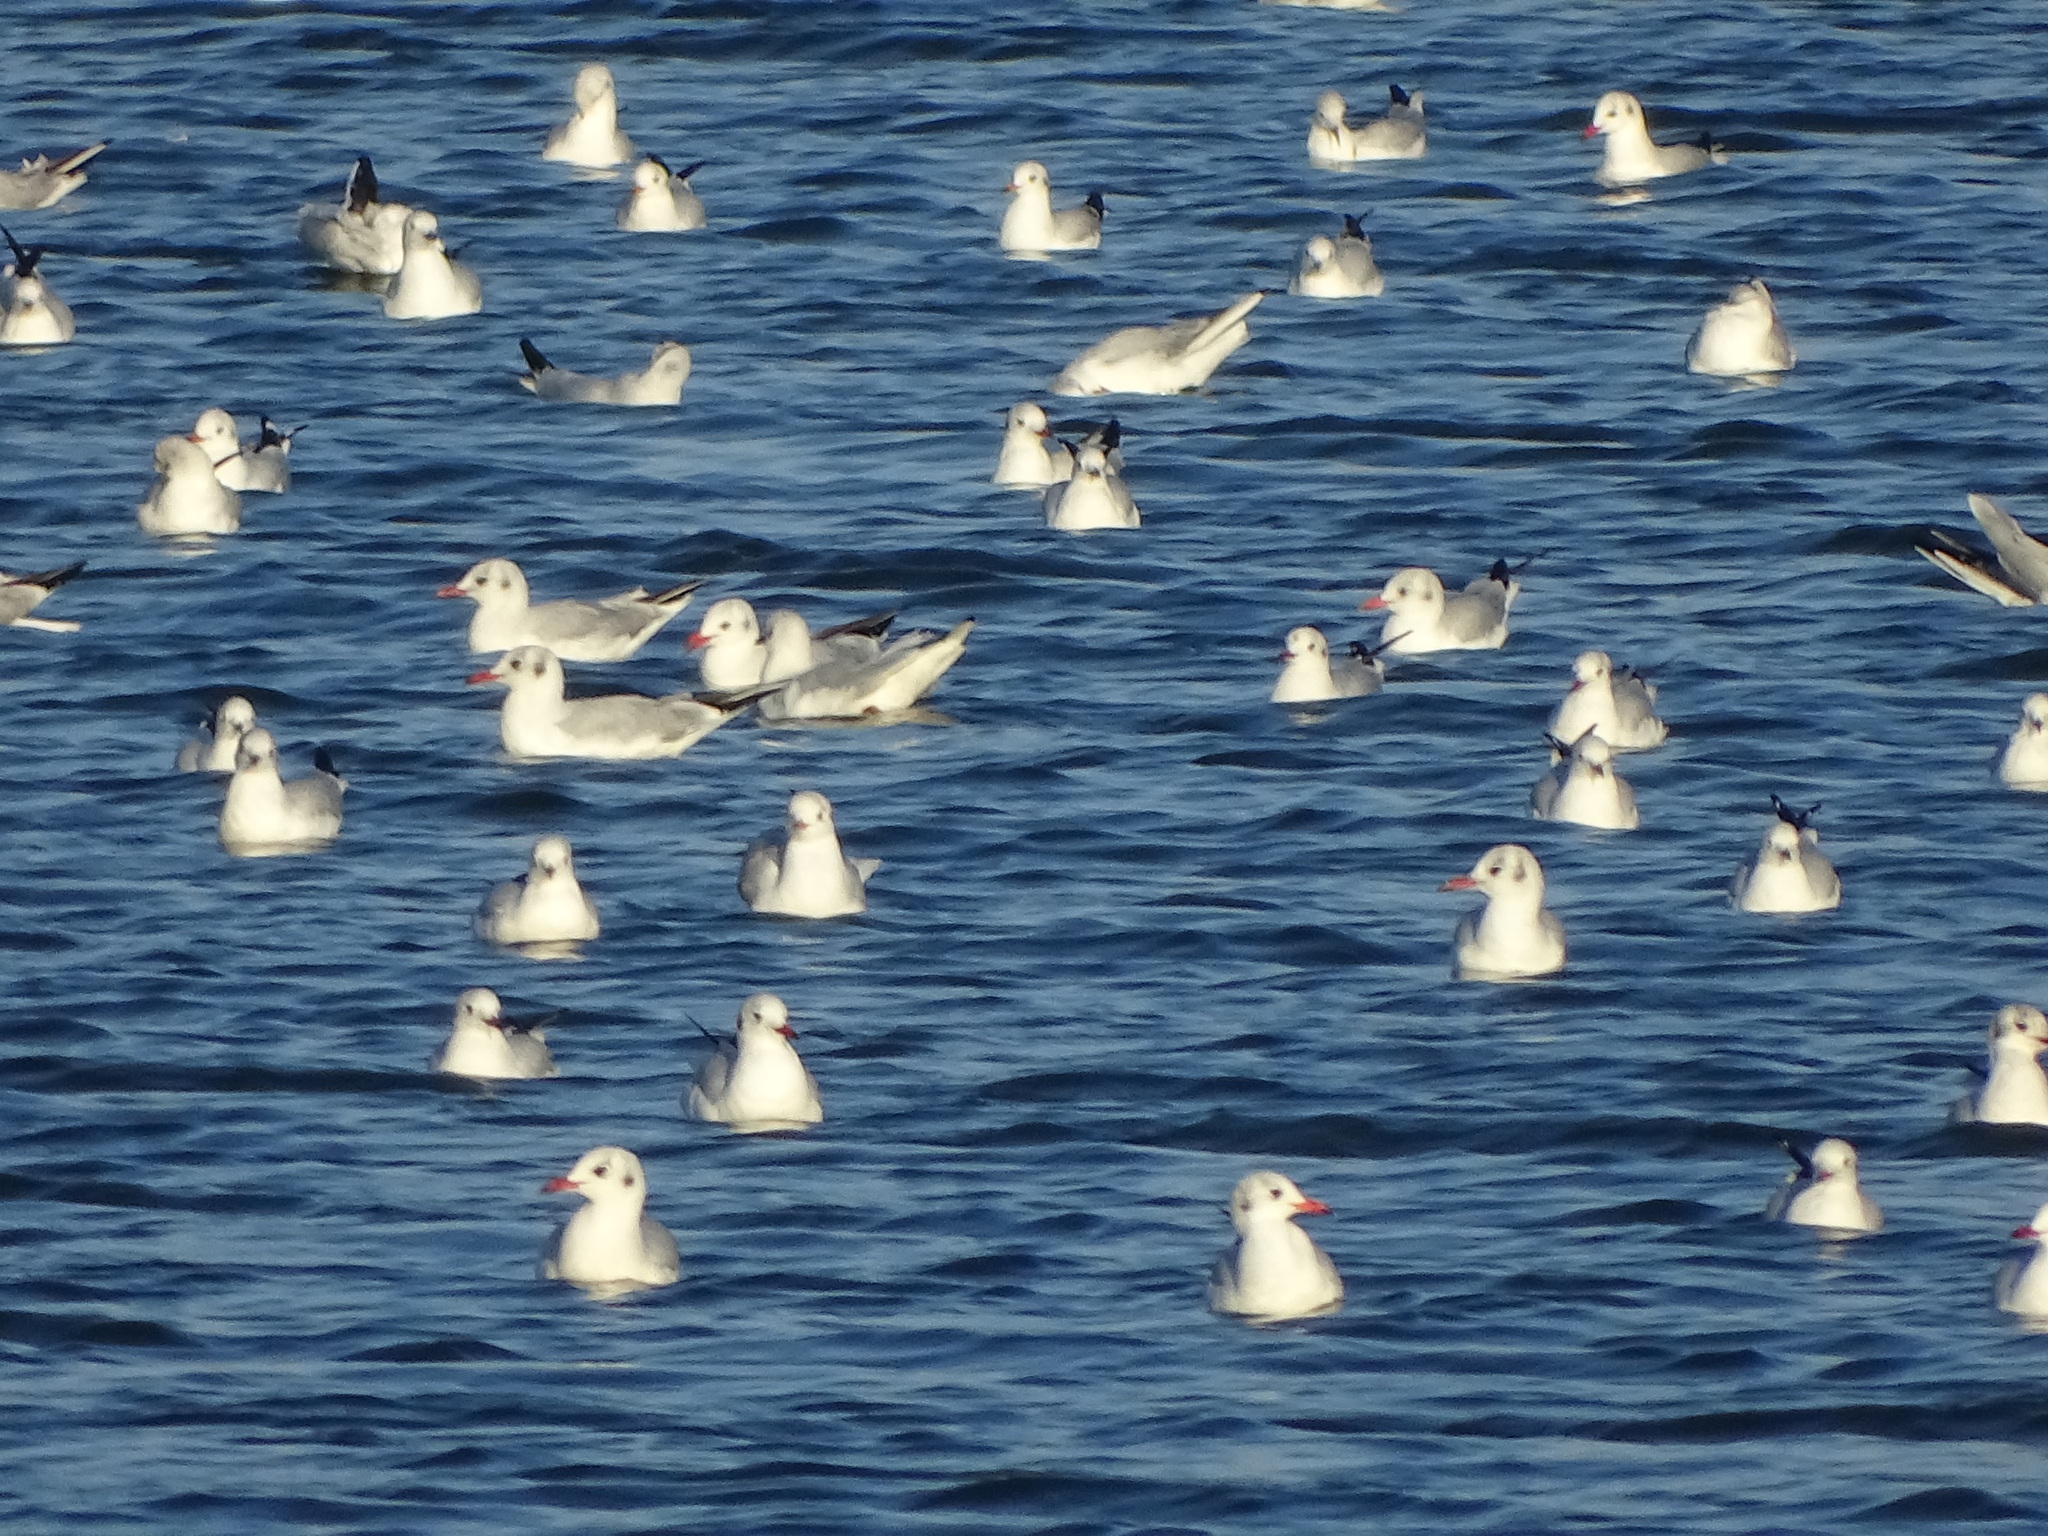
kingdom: Animalia
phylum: Chordata
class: Aves
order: Charadriiformes
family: Laridae
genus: Chroicocephalus
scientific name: Chroicocephalus ridibundus
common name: Black-headed gull
